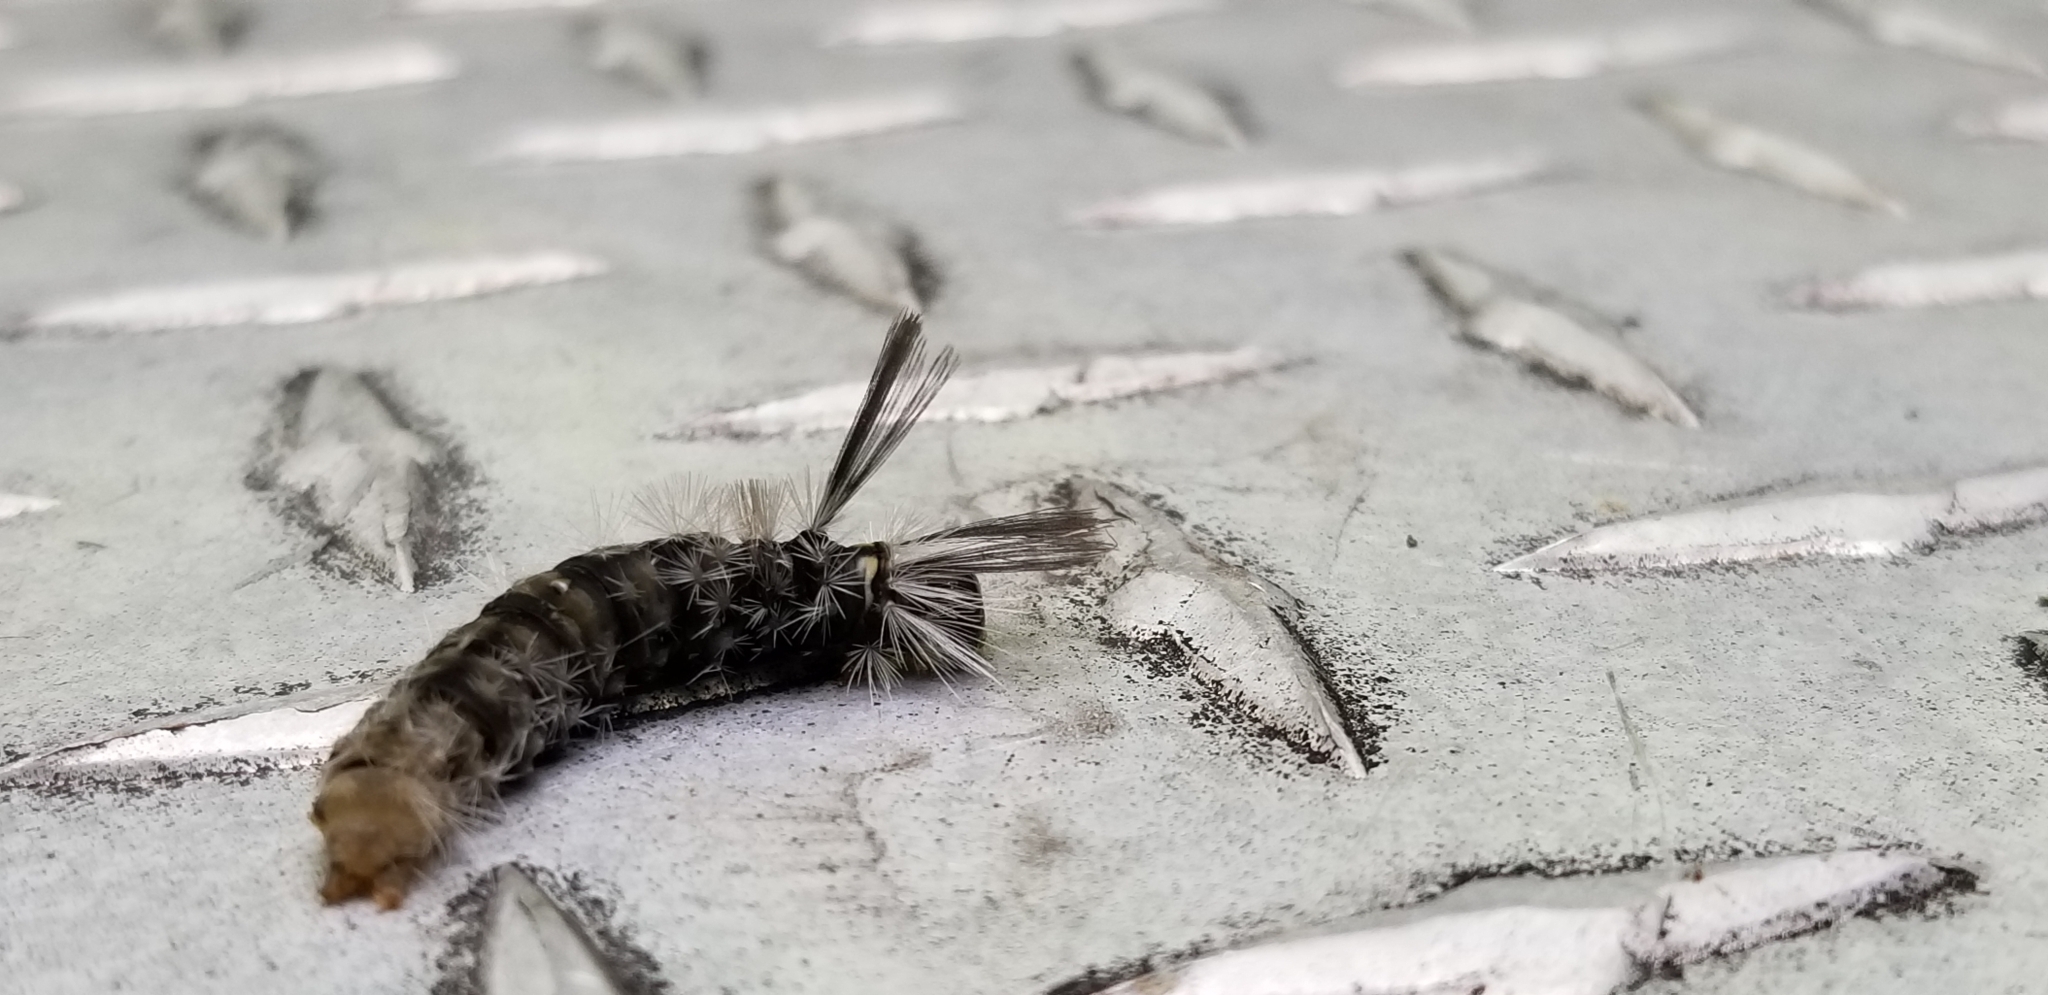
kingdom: Animalia
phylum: Arthropoda
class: Insecta
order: Lepidoptera
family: Erebidae
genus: Halysidota
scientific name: Halysidota tessellaris
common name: Banded tussock moth
